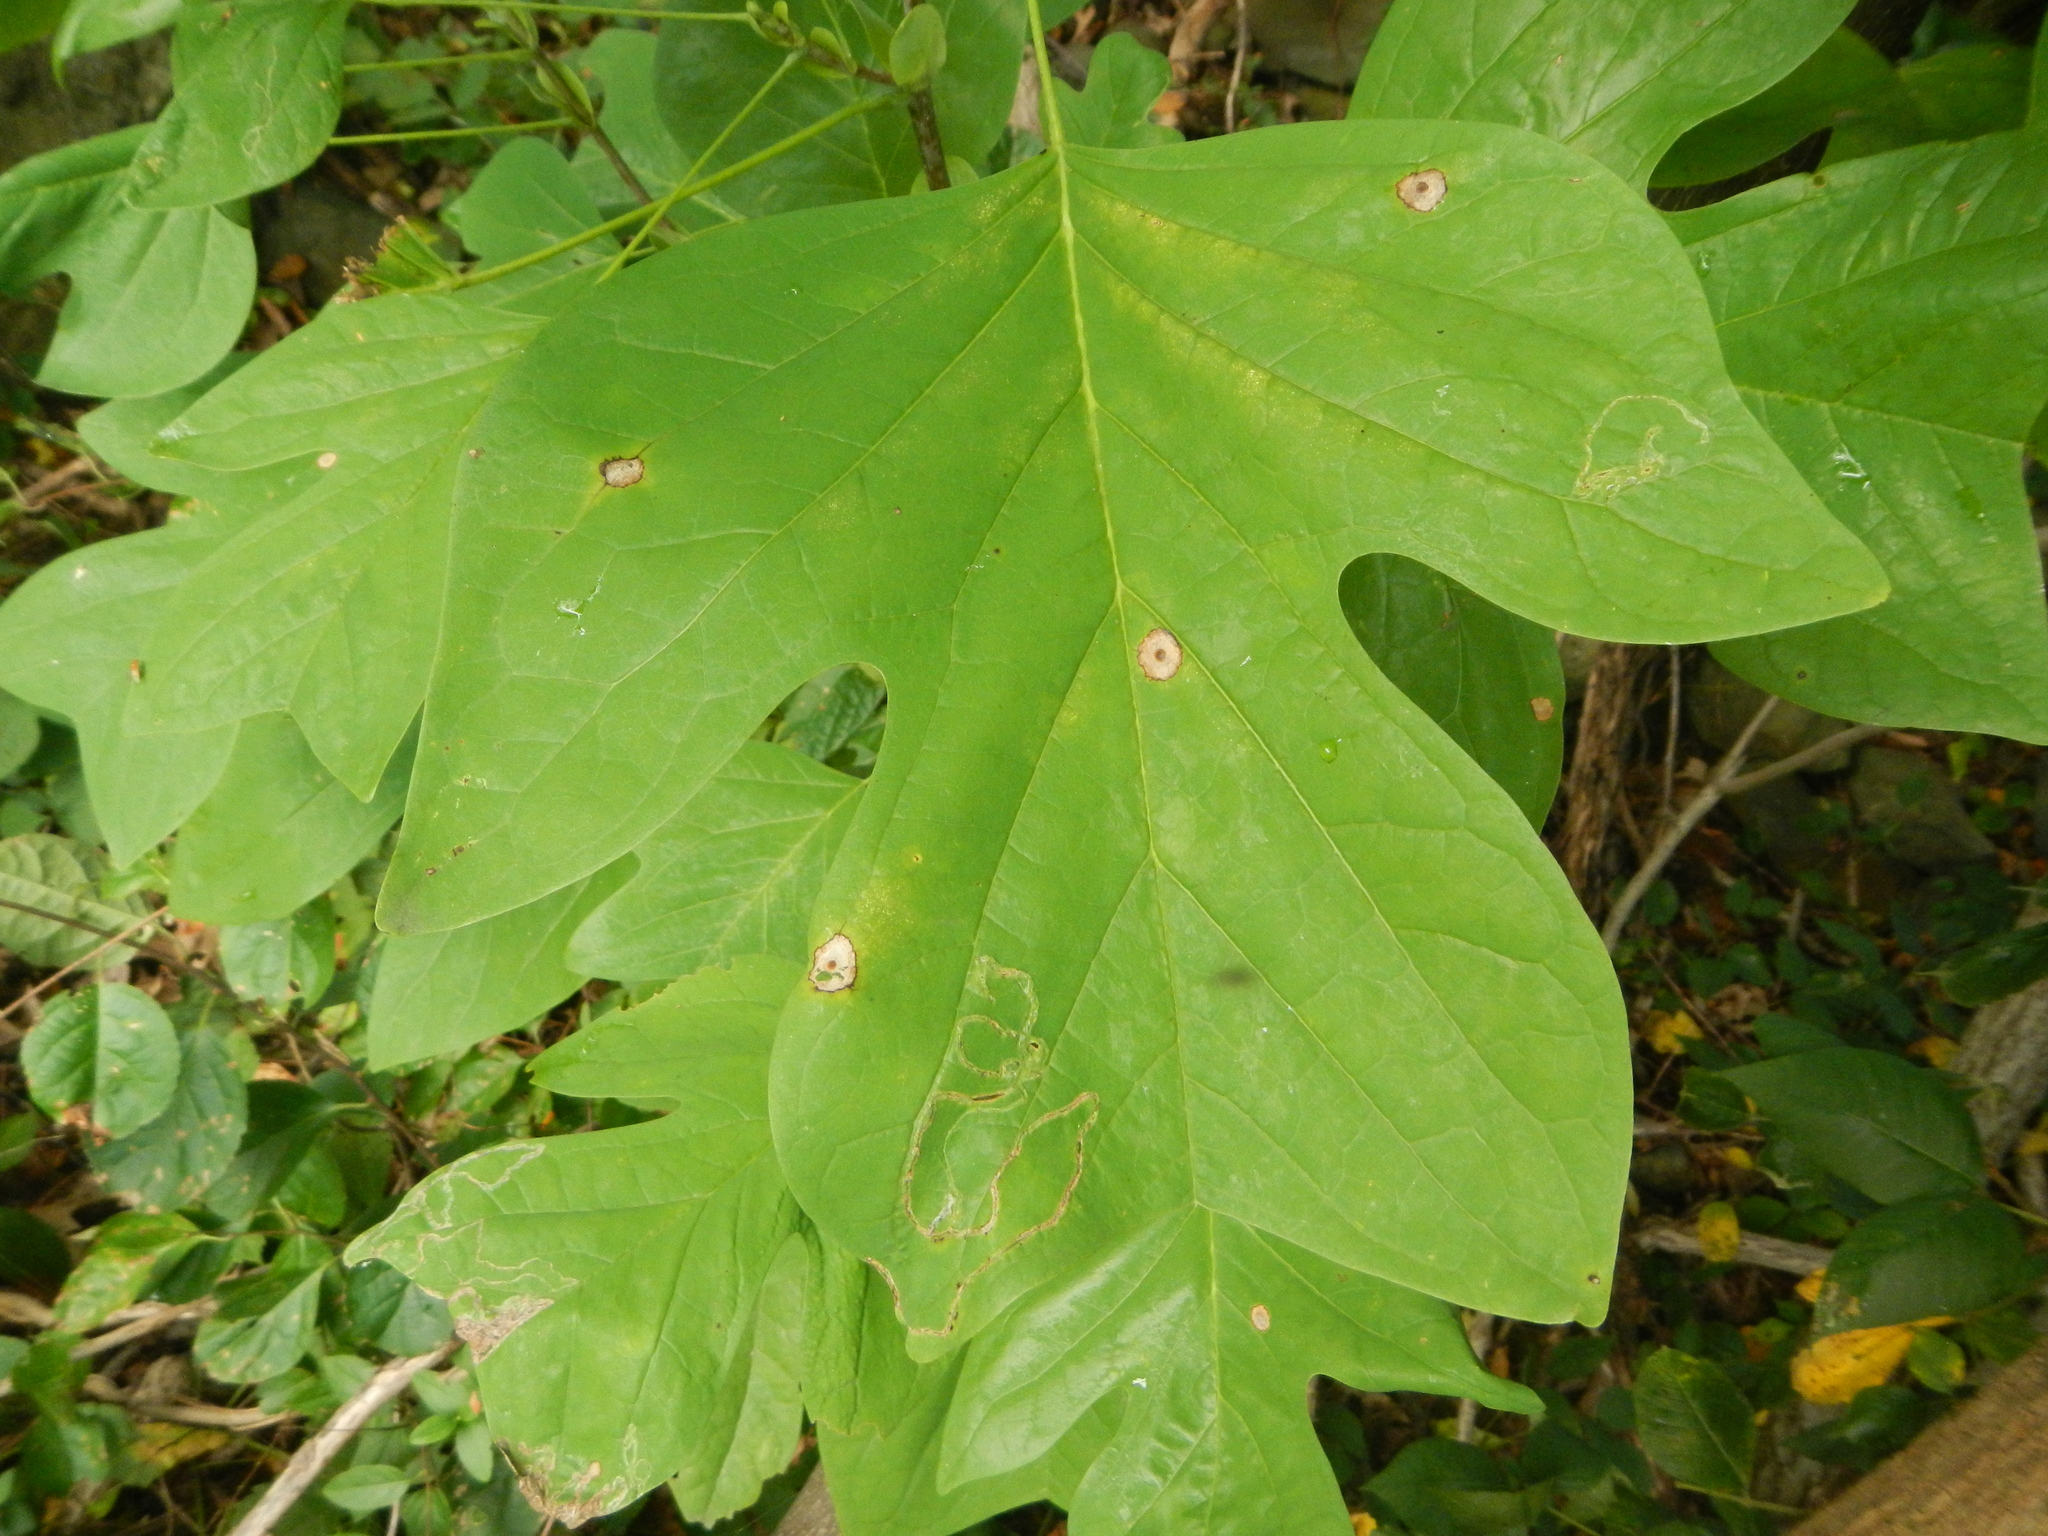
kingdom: Plantae
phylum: Tracheophyta
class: Magnoliopsida
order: Magnoliales
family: Magnoliaceae
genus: Liriodendron
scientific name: Liriodendron tulipifera
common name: Tulip tree
